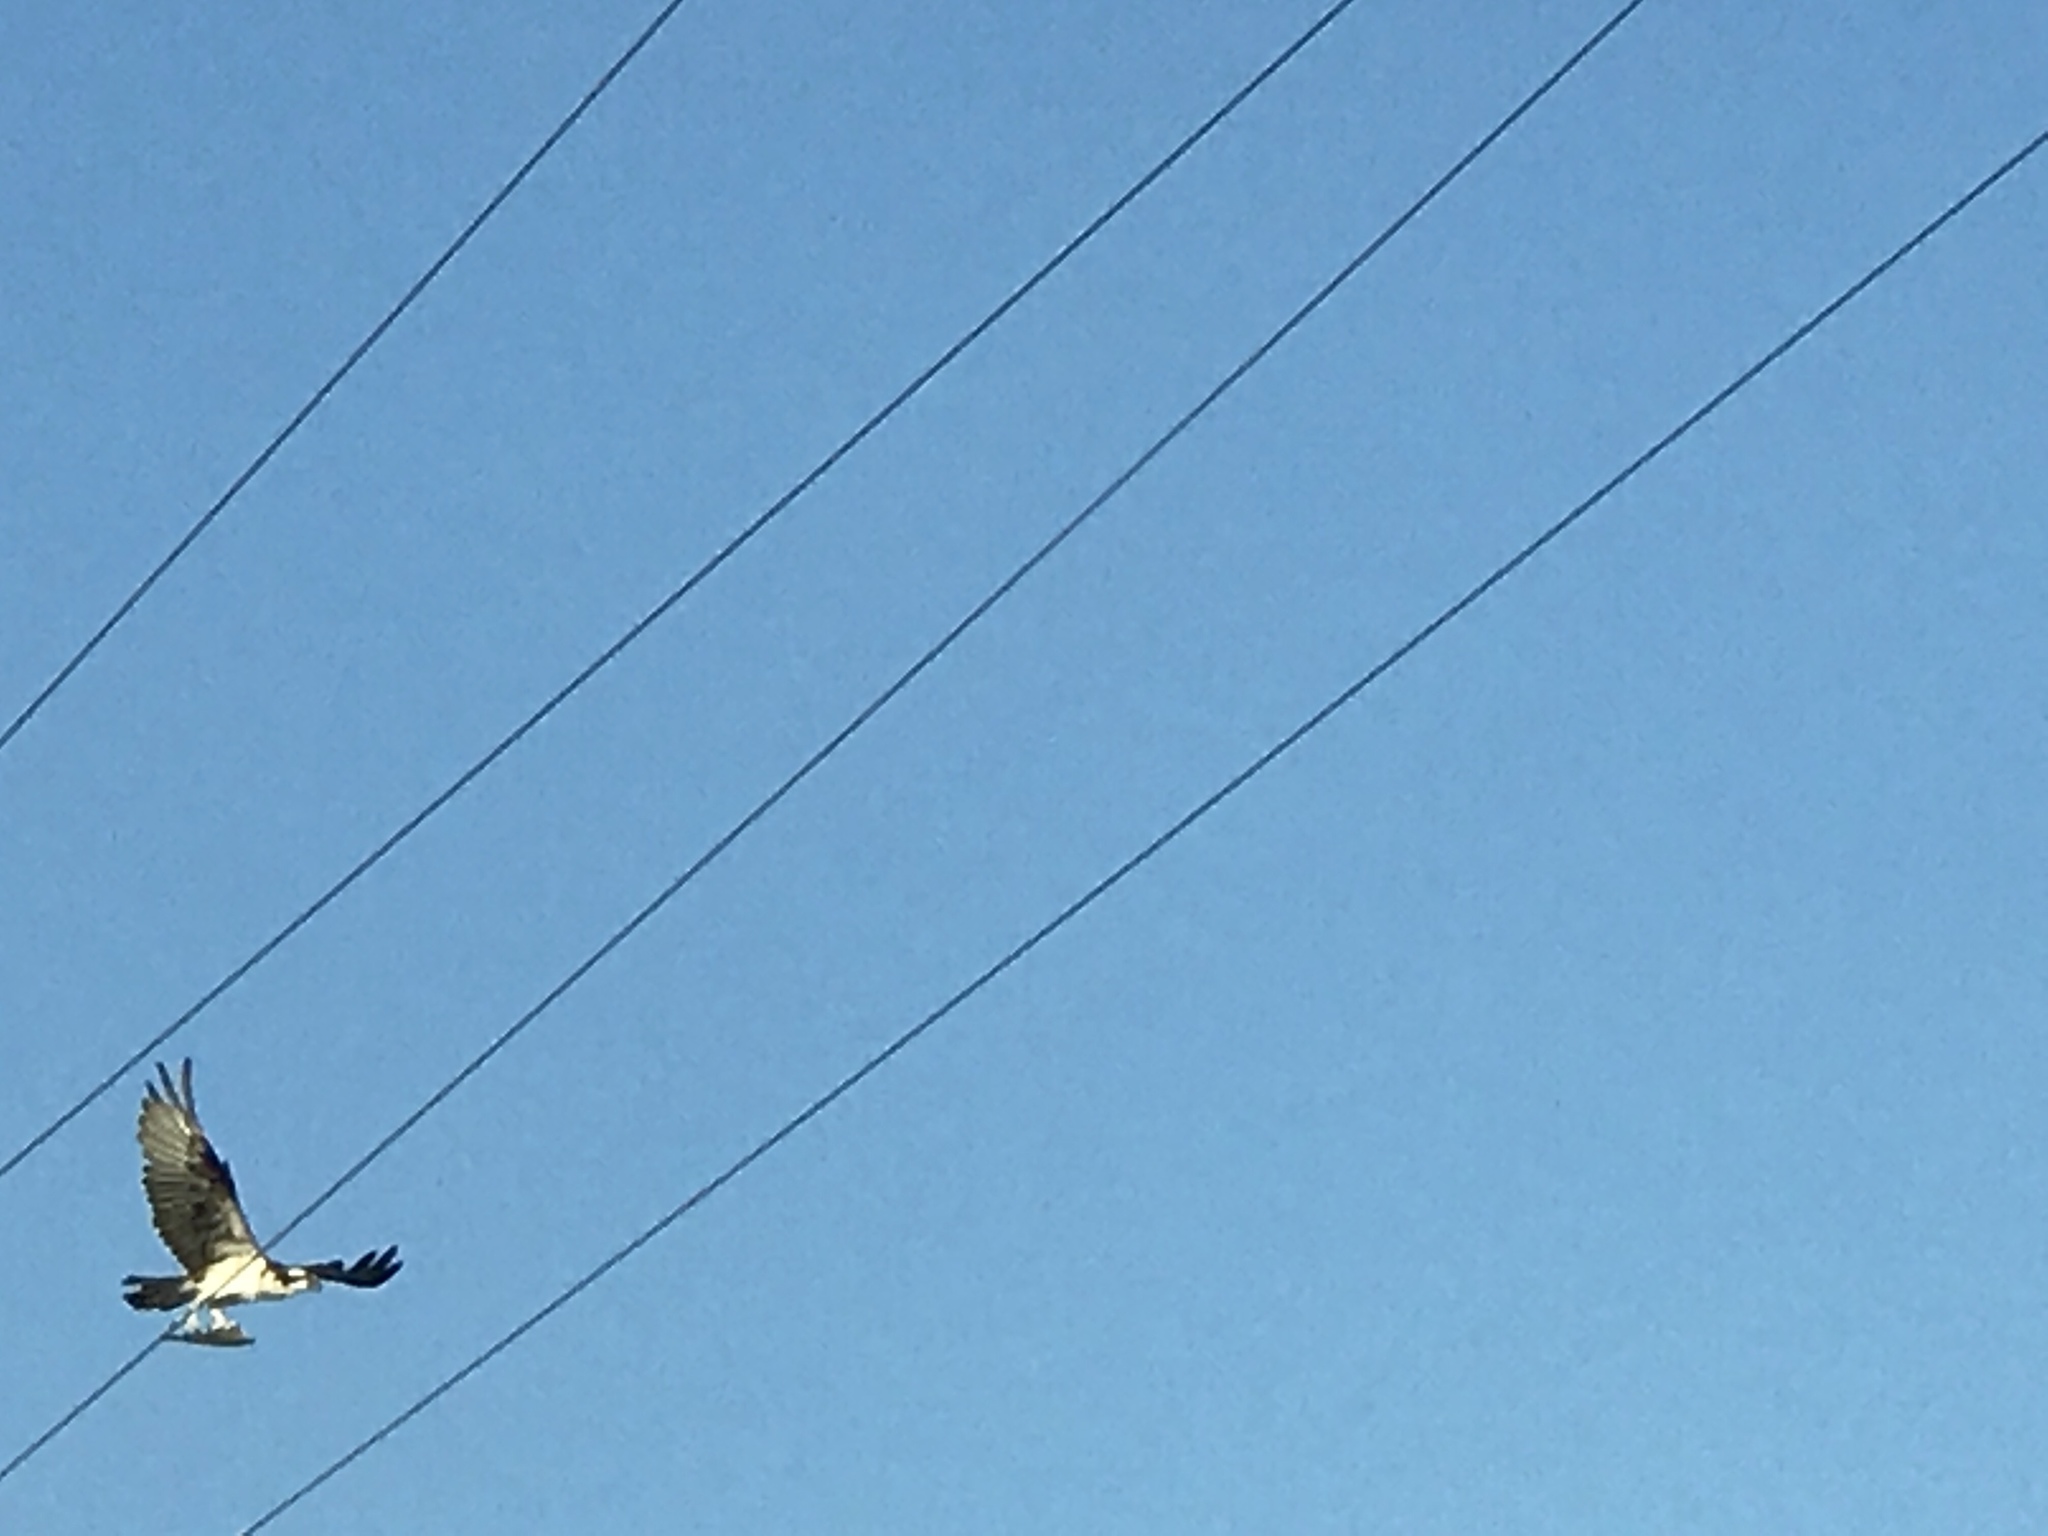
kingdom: Animalia
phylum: Chordata
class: Aves
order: Accipitriformes
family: Pandionidae
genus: Pandion
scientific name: Pandion haliaetus
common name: Osprey
